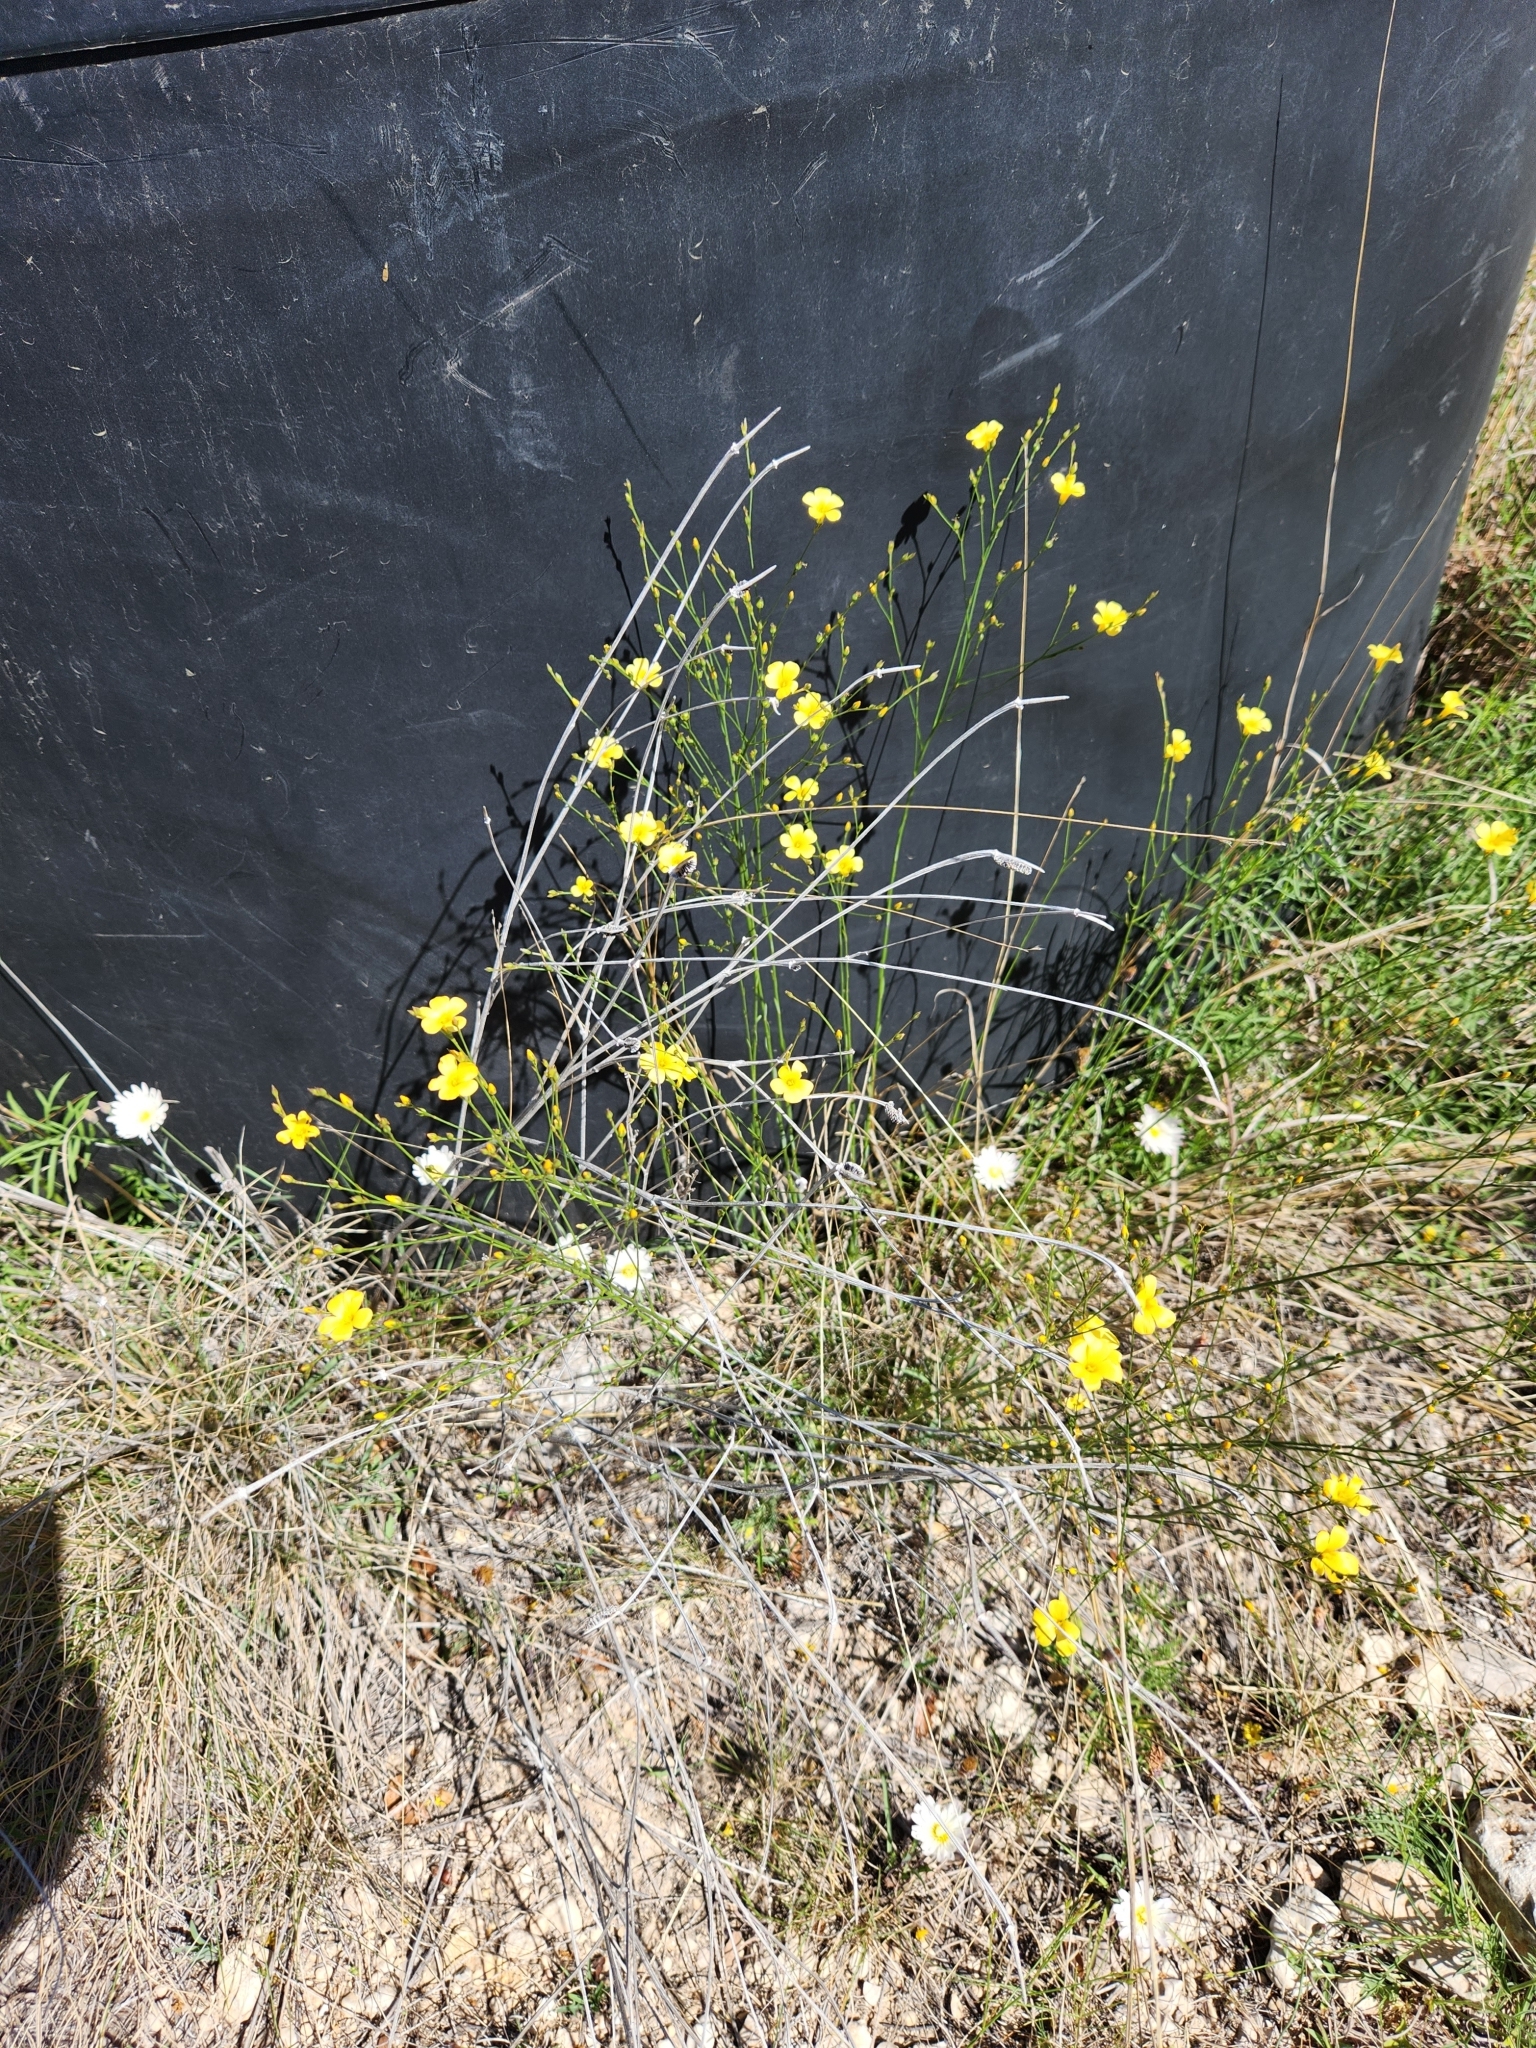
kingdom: Plantae
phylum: Tracheophyta
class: Magnoliopsida
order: Malpighiales
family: Linaceae
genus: Linum
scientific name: Linum rupestre
